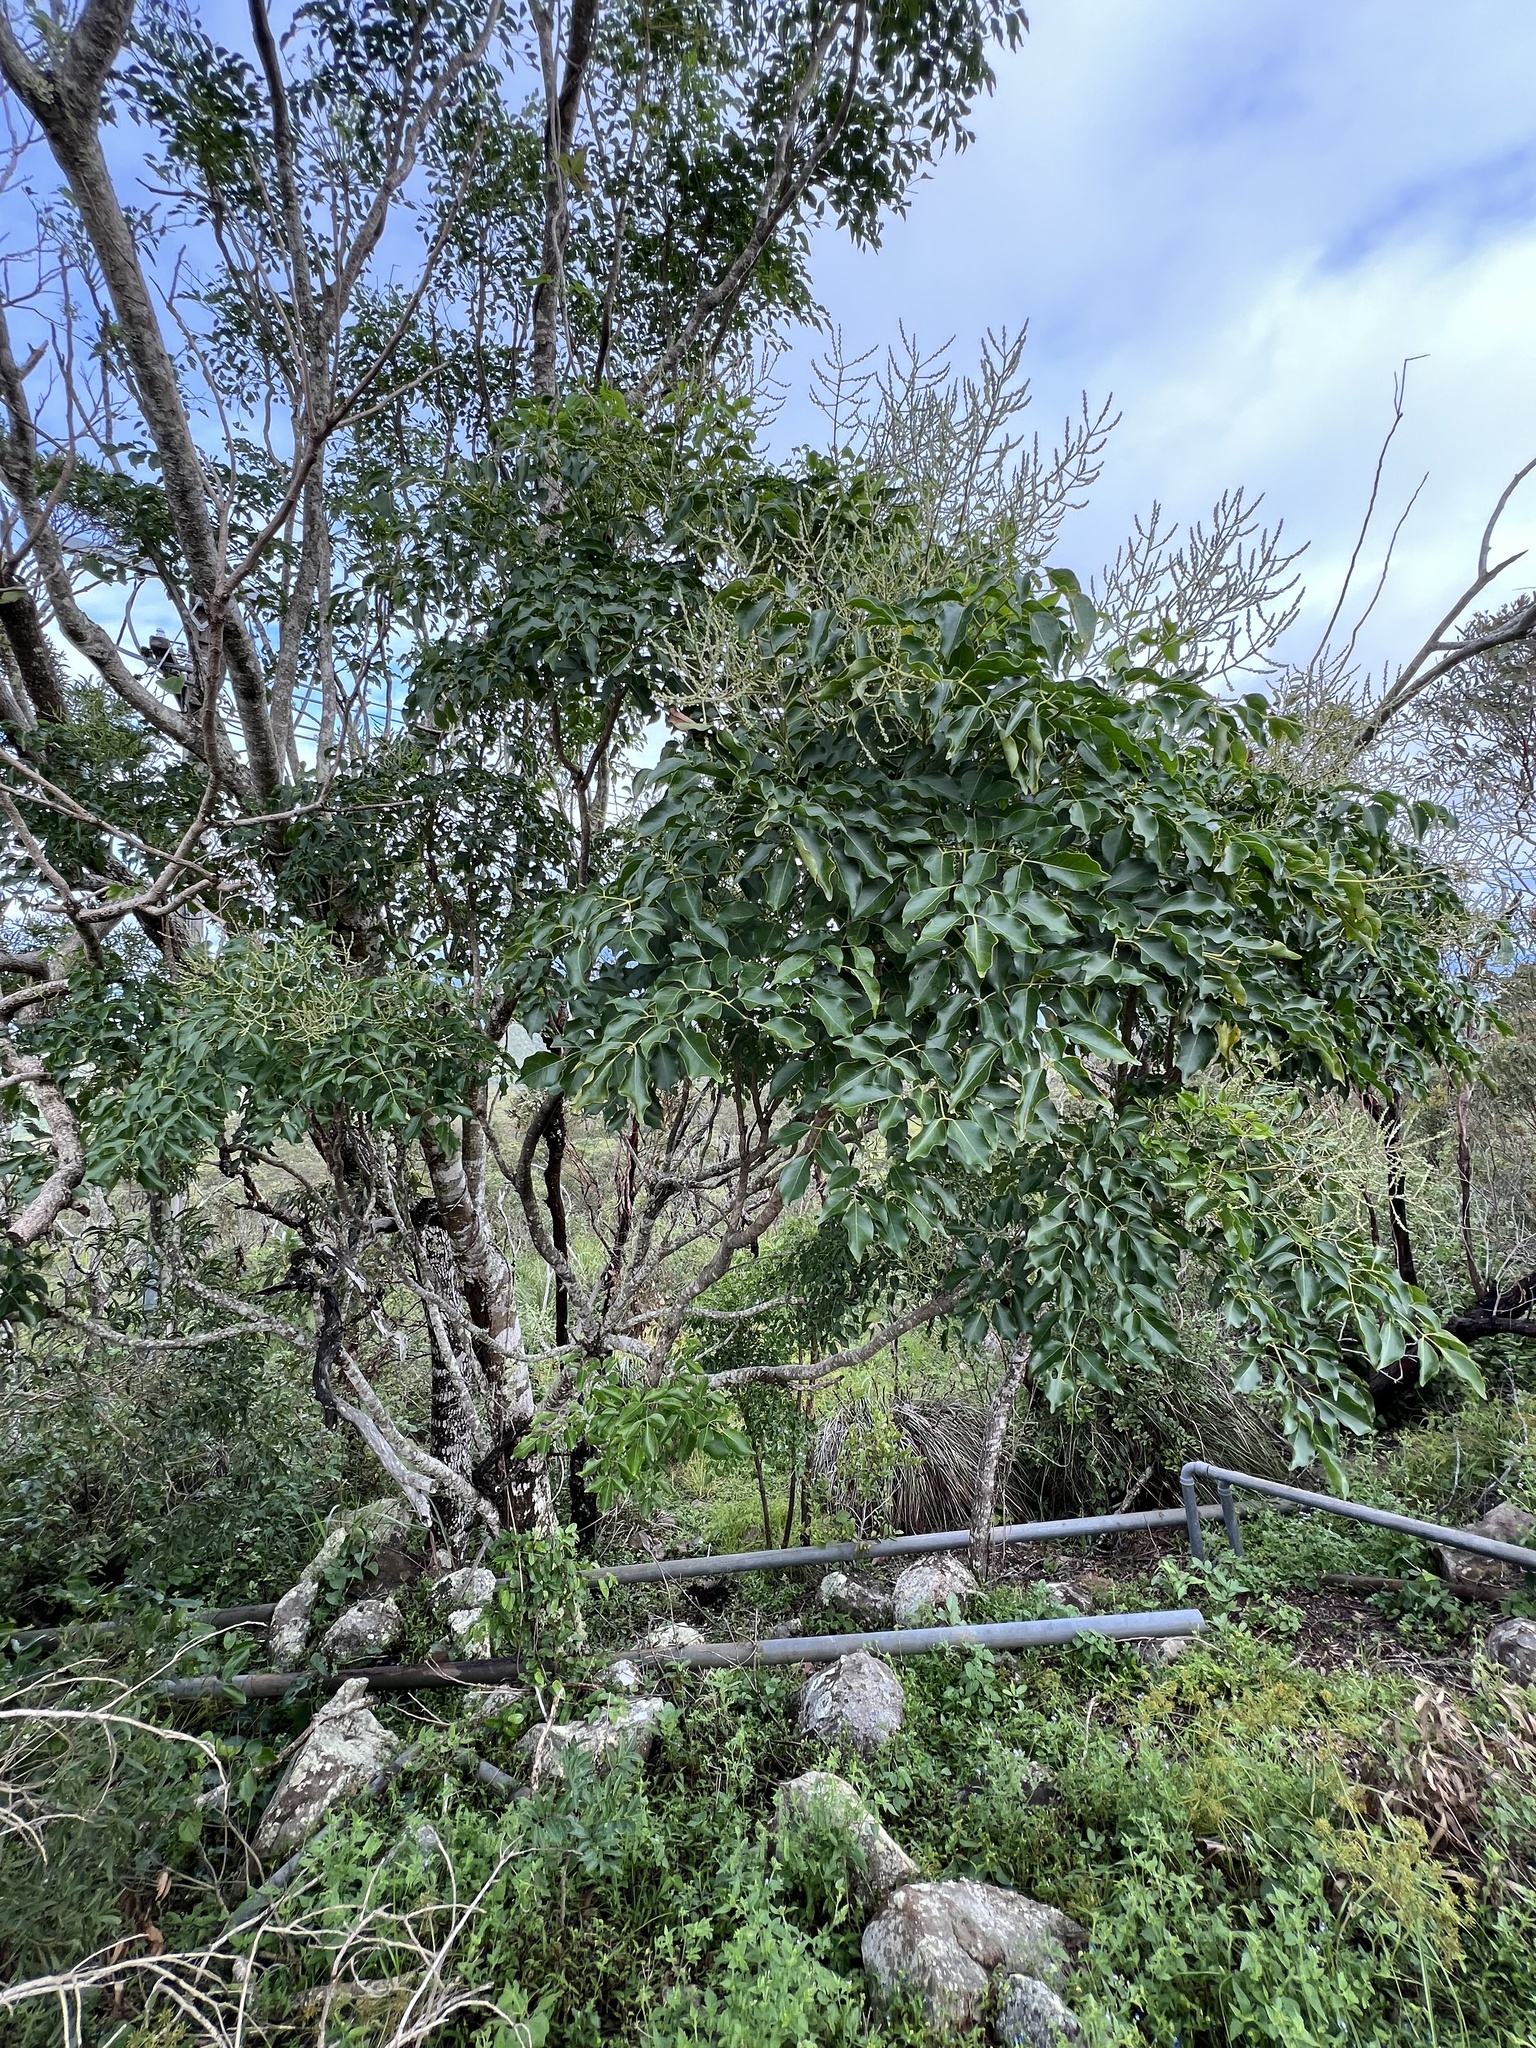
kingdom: Plantae
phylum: Tracheophyta
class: Magnoliopsida
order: Apiales
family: Araliaceae
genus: Polyscias
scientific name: Polyscias elegans
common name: Mowbulan whitewood
